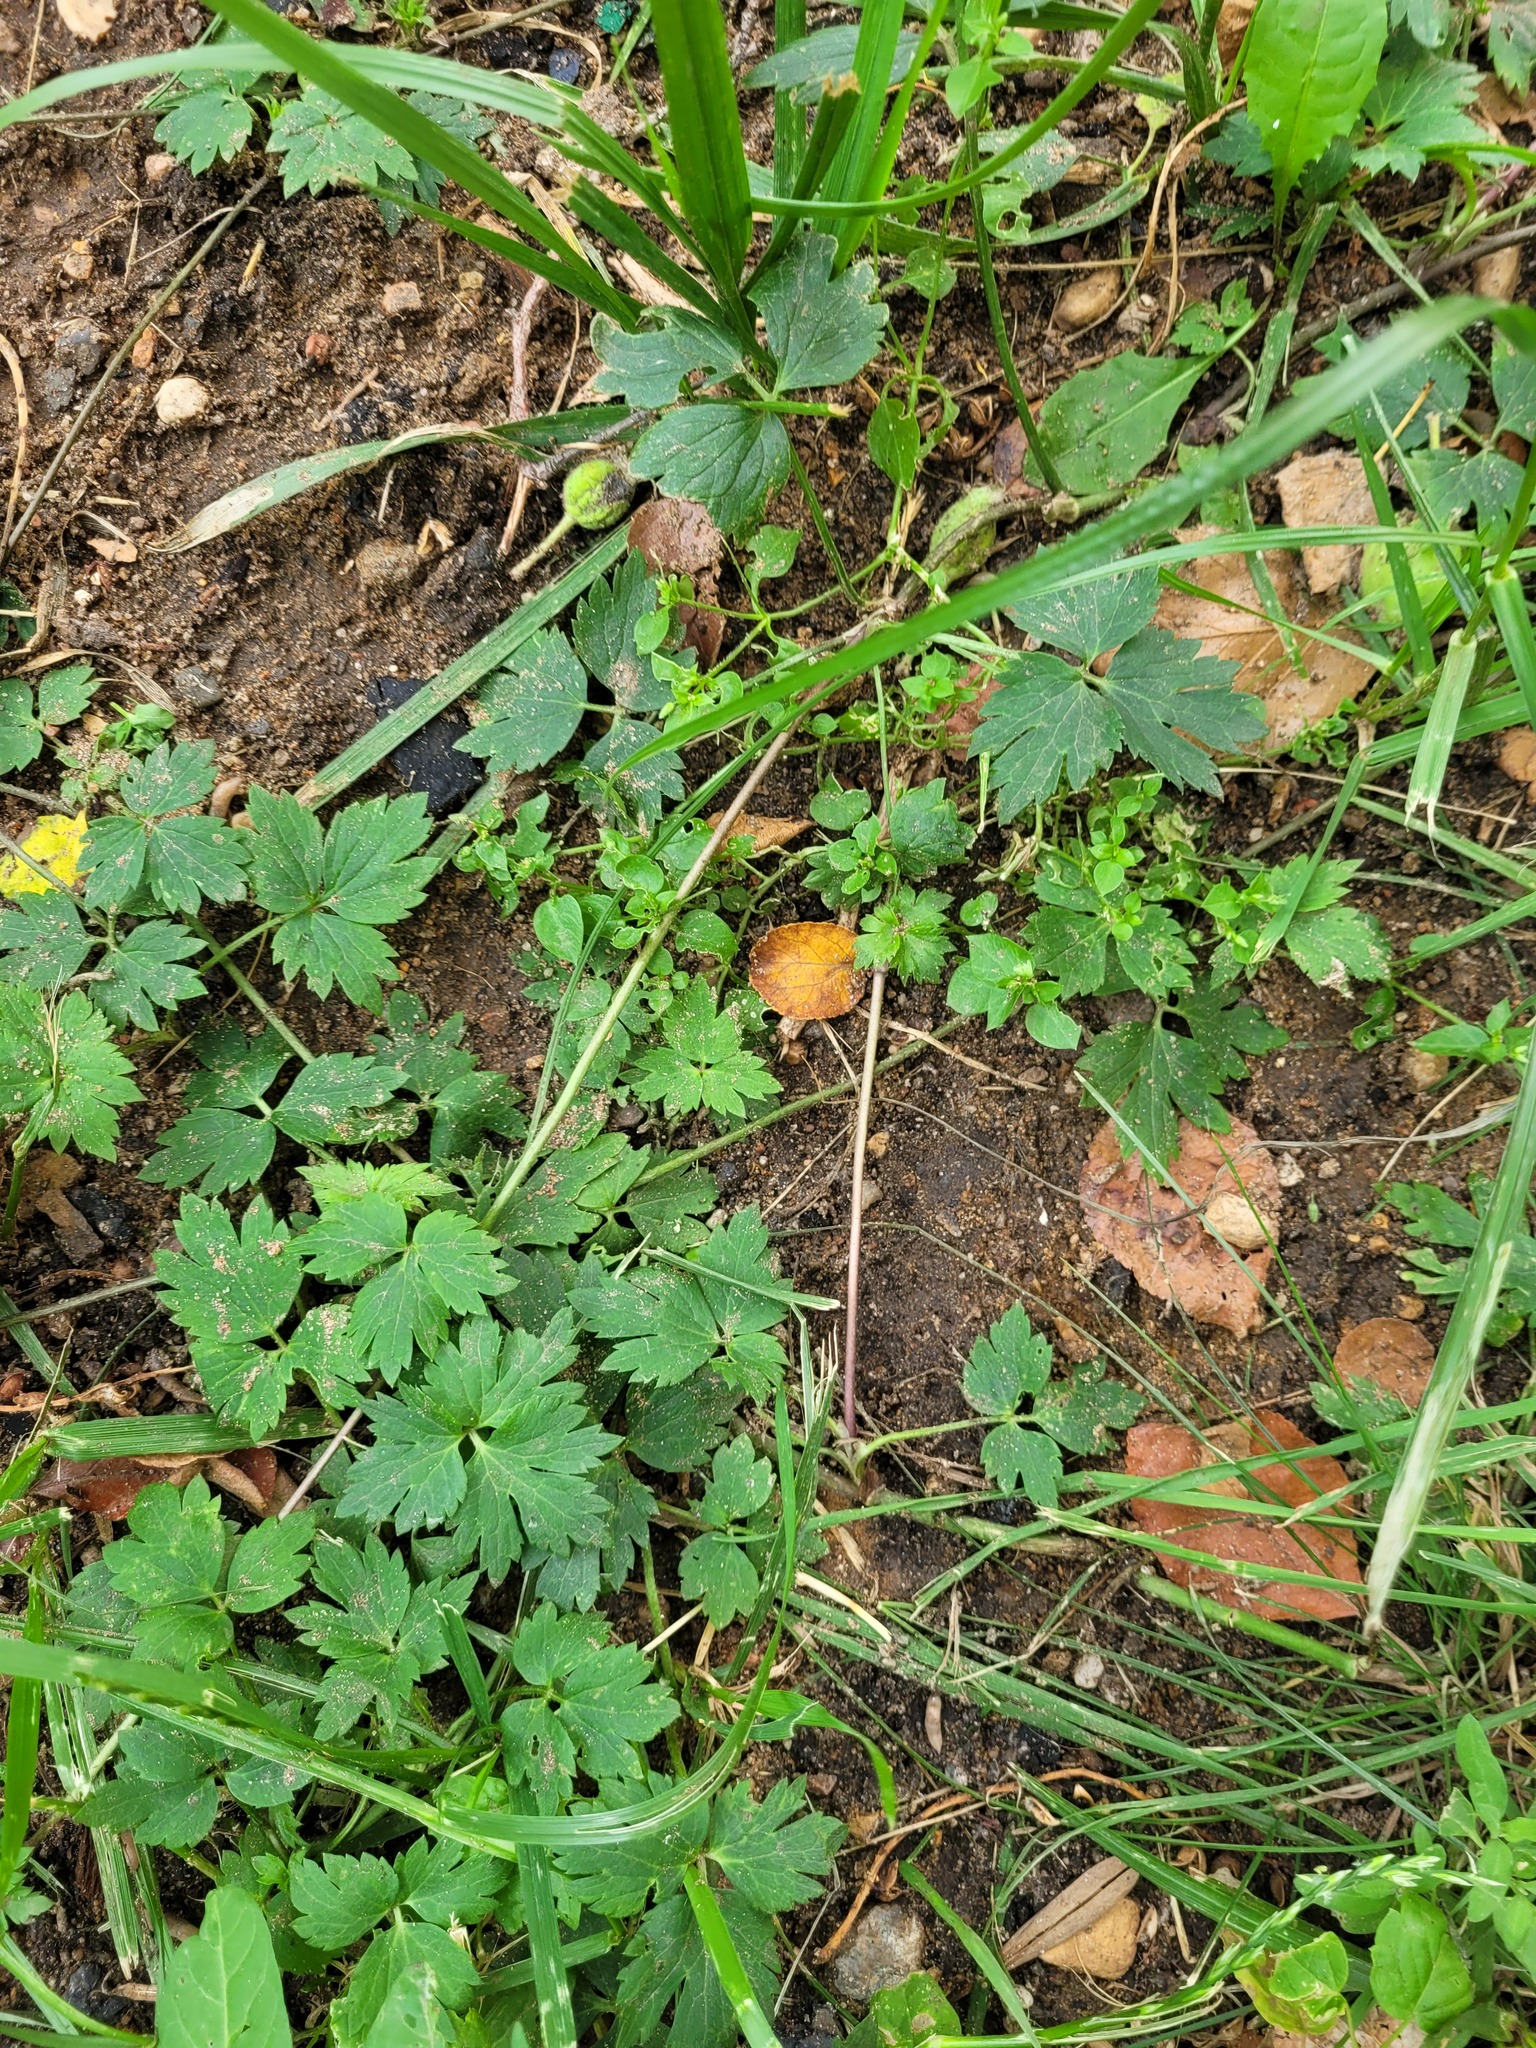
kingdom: Plantae
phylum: Tracheophyta
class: Magnoliopsida
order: Ranunculales
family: Ranunculaceae
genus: Ranunculus
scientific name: Ranunculus repens
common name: Creeping buttercup
